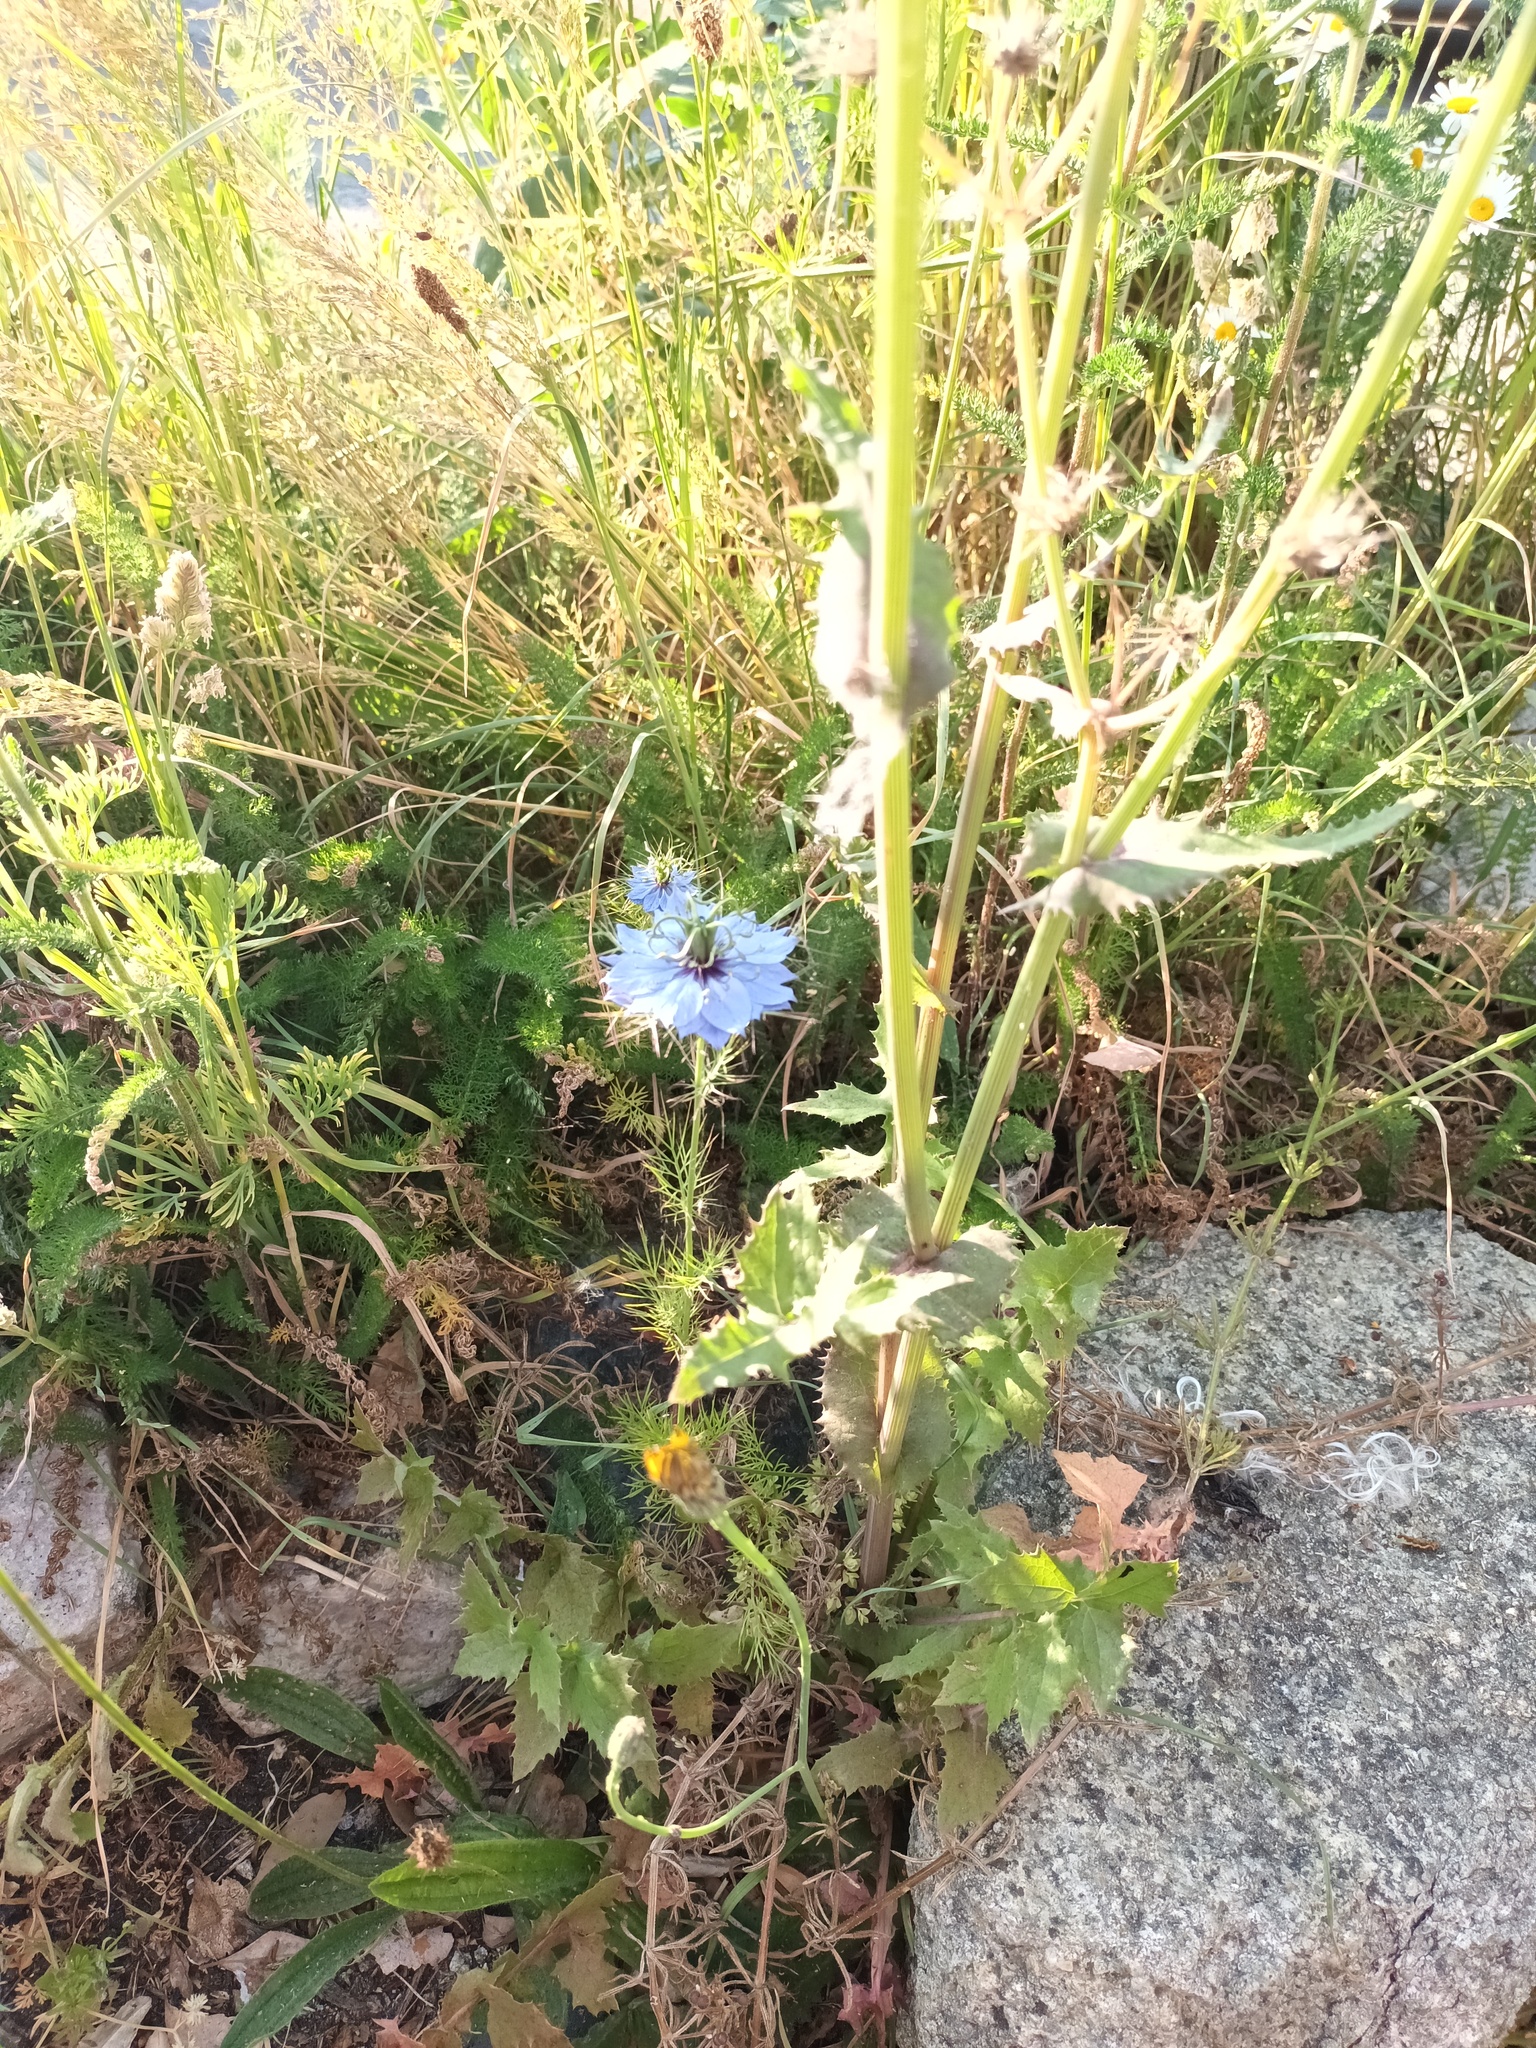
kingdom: Plantae
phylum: Tracheophyta
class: Magnoliopsida
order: Ranunculales
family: Ranunculaceae
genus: Nigella
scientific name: Nigella damascena
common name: Love-in-a-mist
